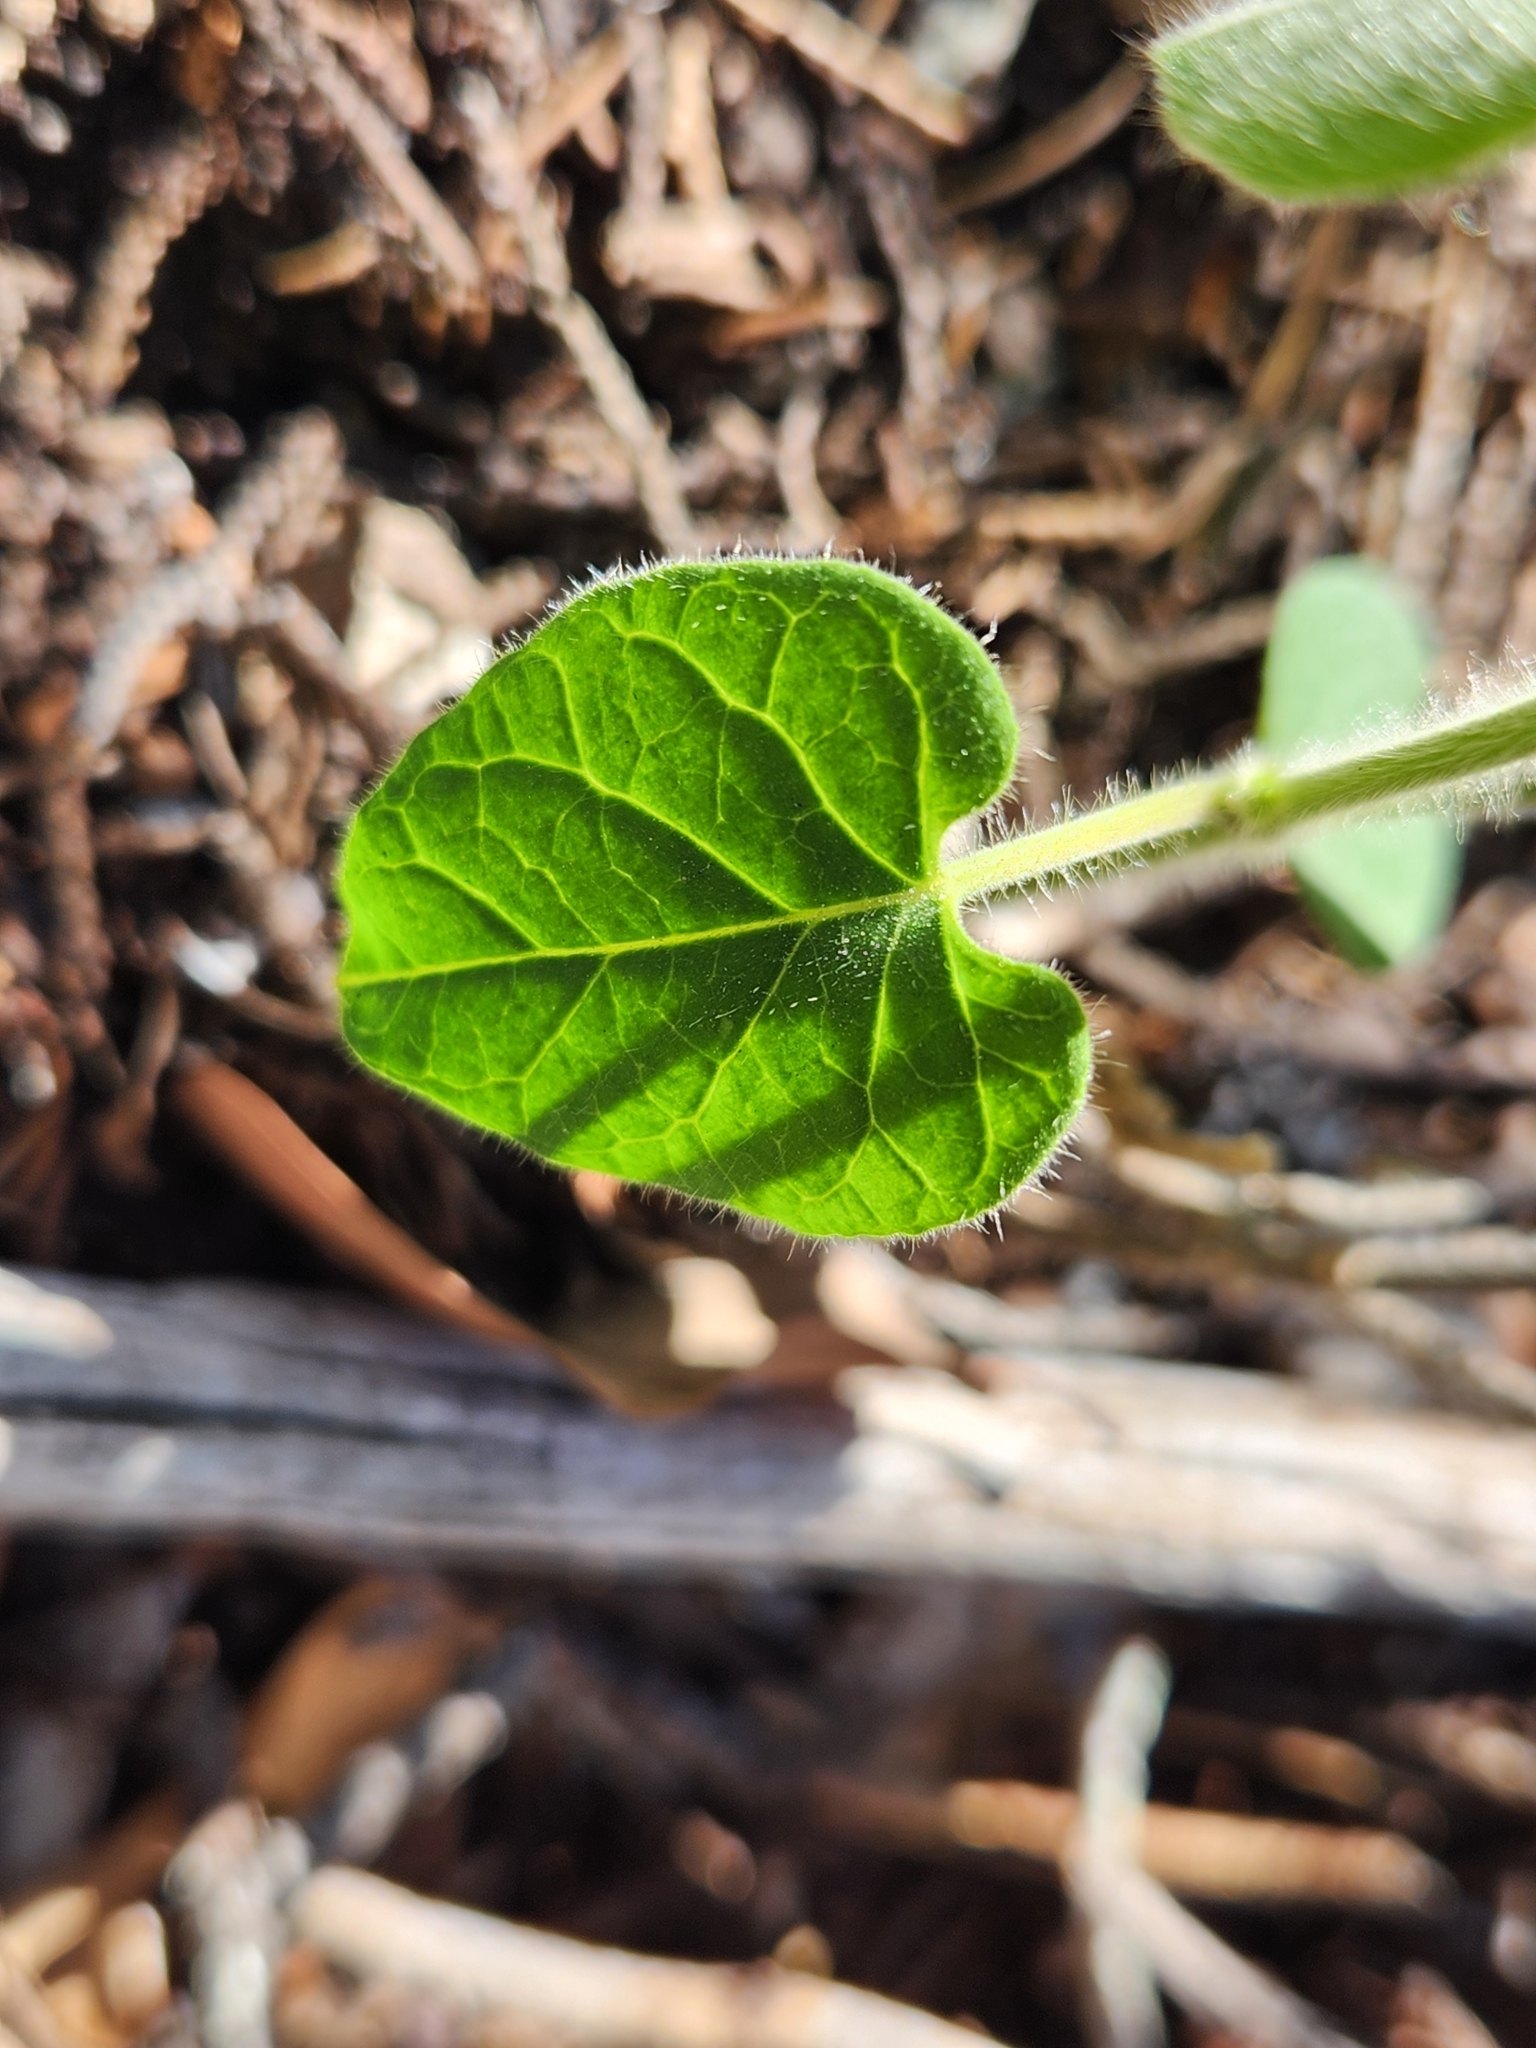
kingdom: Plantae
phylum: Tracheophyta
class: Magnoliopsida
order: Gentianales
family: Apocynaceae
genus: Dictyanthus
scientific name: Dictyanthus reticulatus
